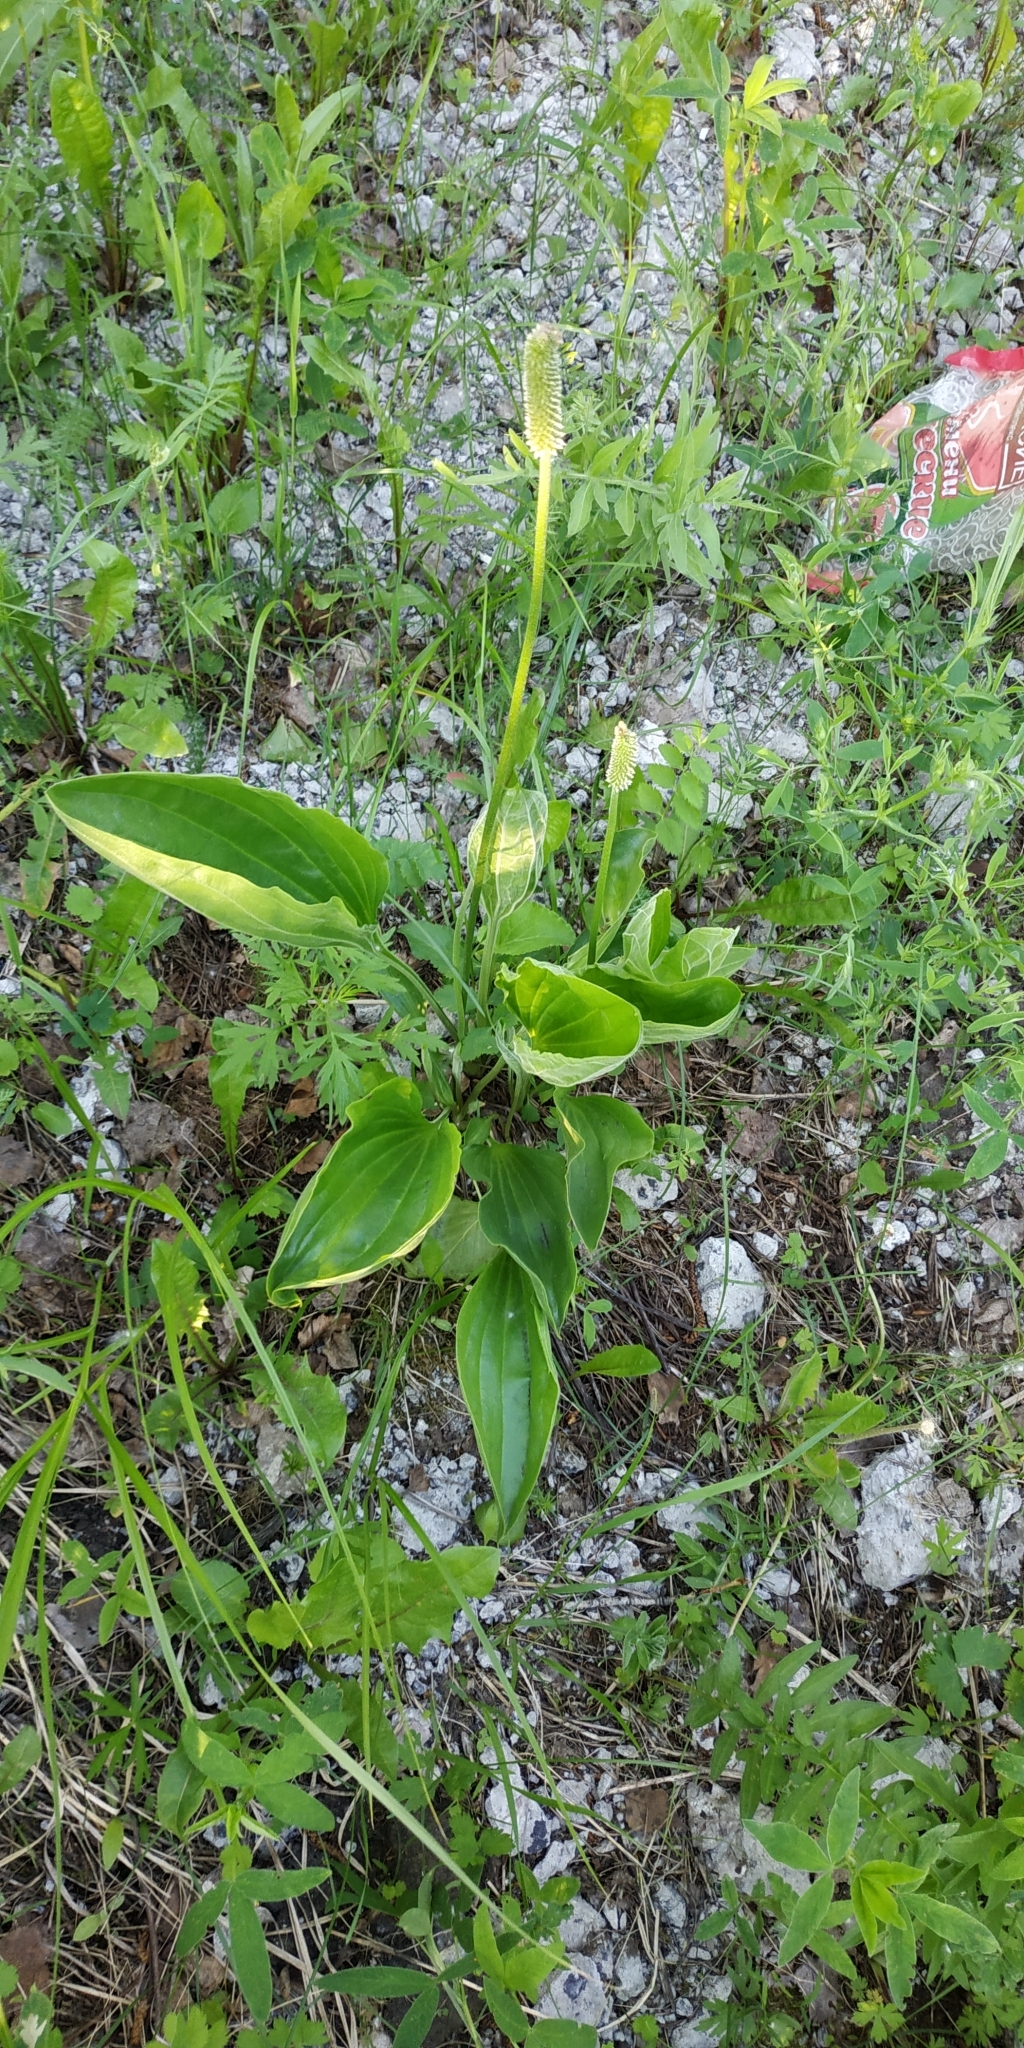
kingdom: Plantae
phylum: Tracheophyta
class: Magnoliopsida
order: Lamiales
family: Plantaginaceae
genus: Plantago
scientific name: Plantago maxima
